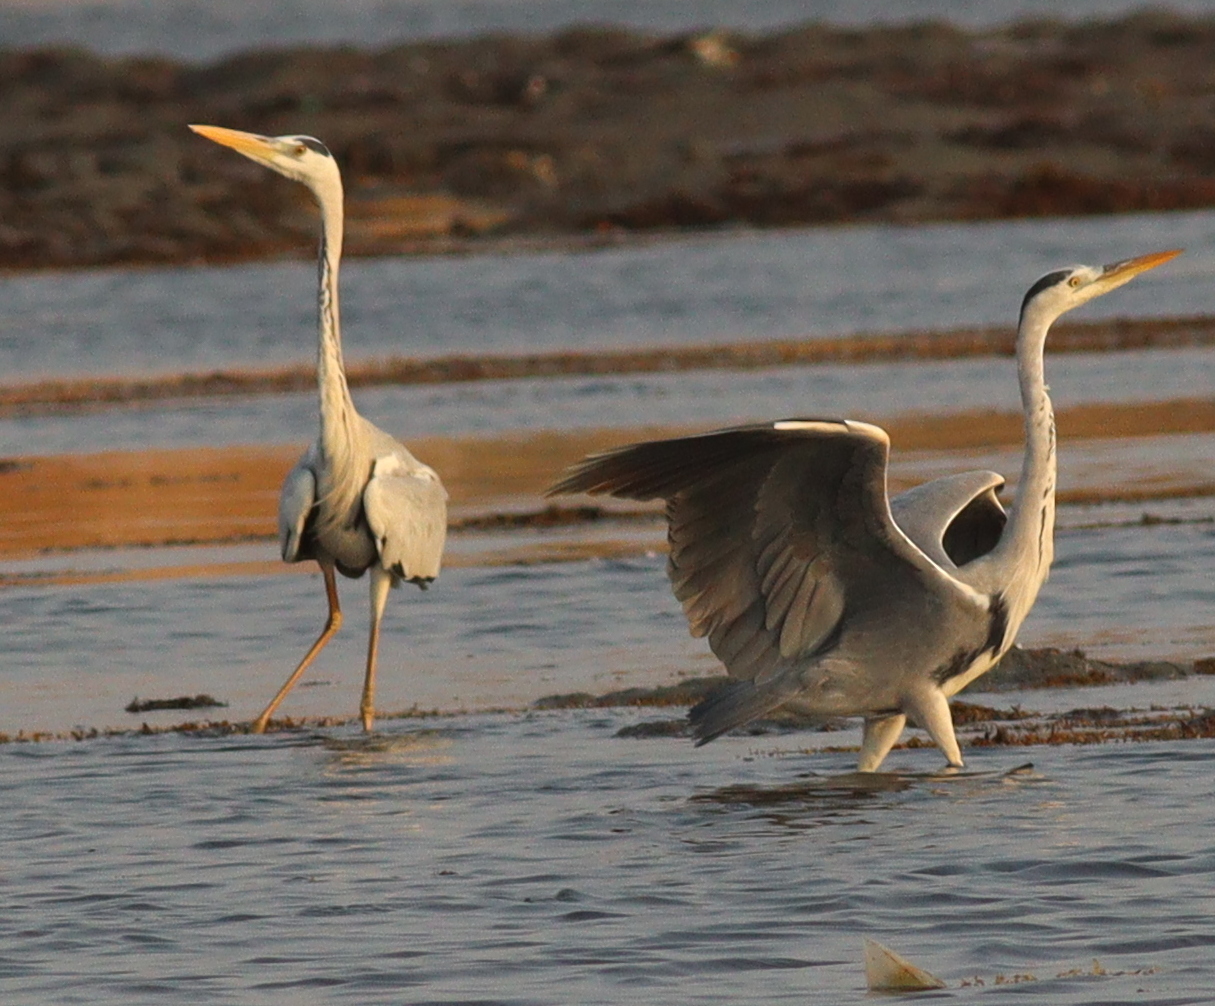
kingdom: Animalia
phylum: Chordata
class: Aves
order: Pelecaniformes
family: Ardeidae
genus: Ardea
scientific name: Ardea cinerea
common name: Grey heron
